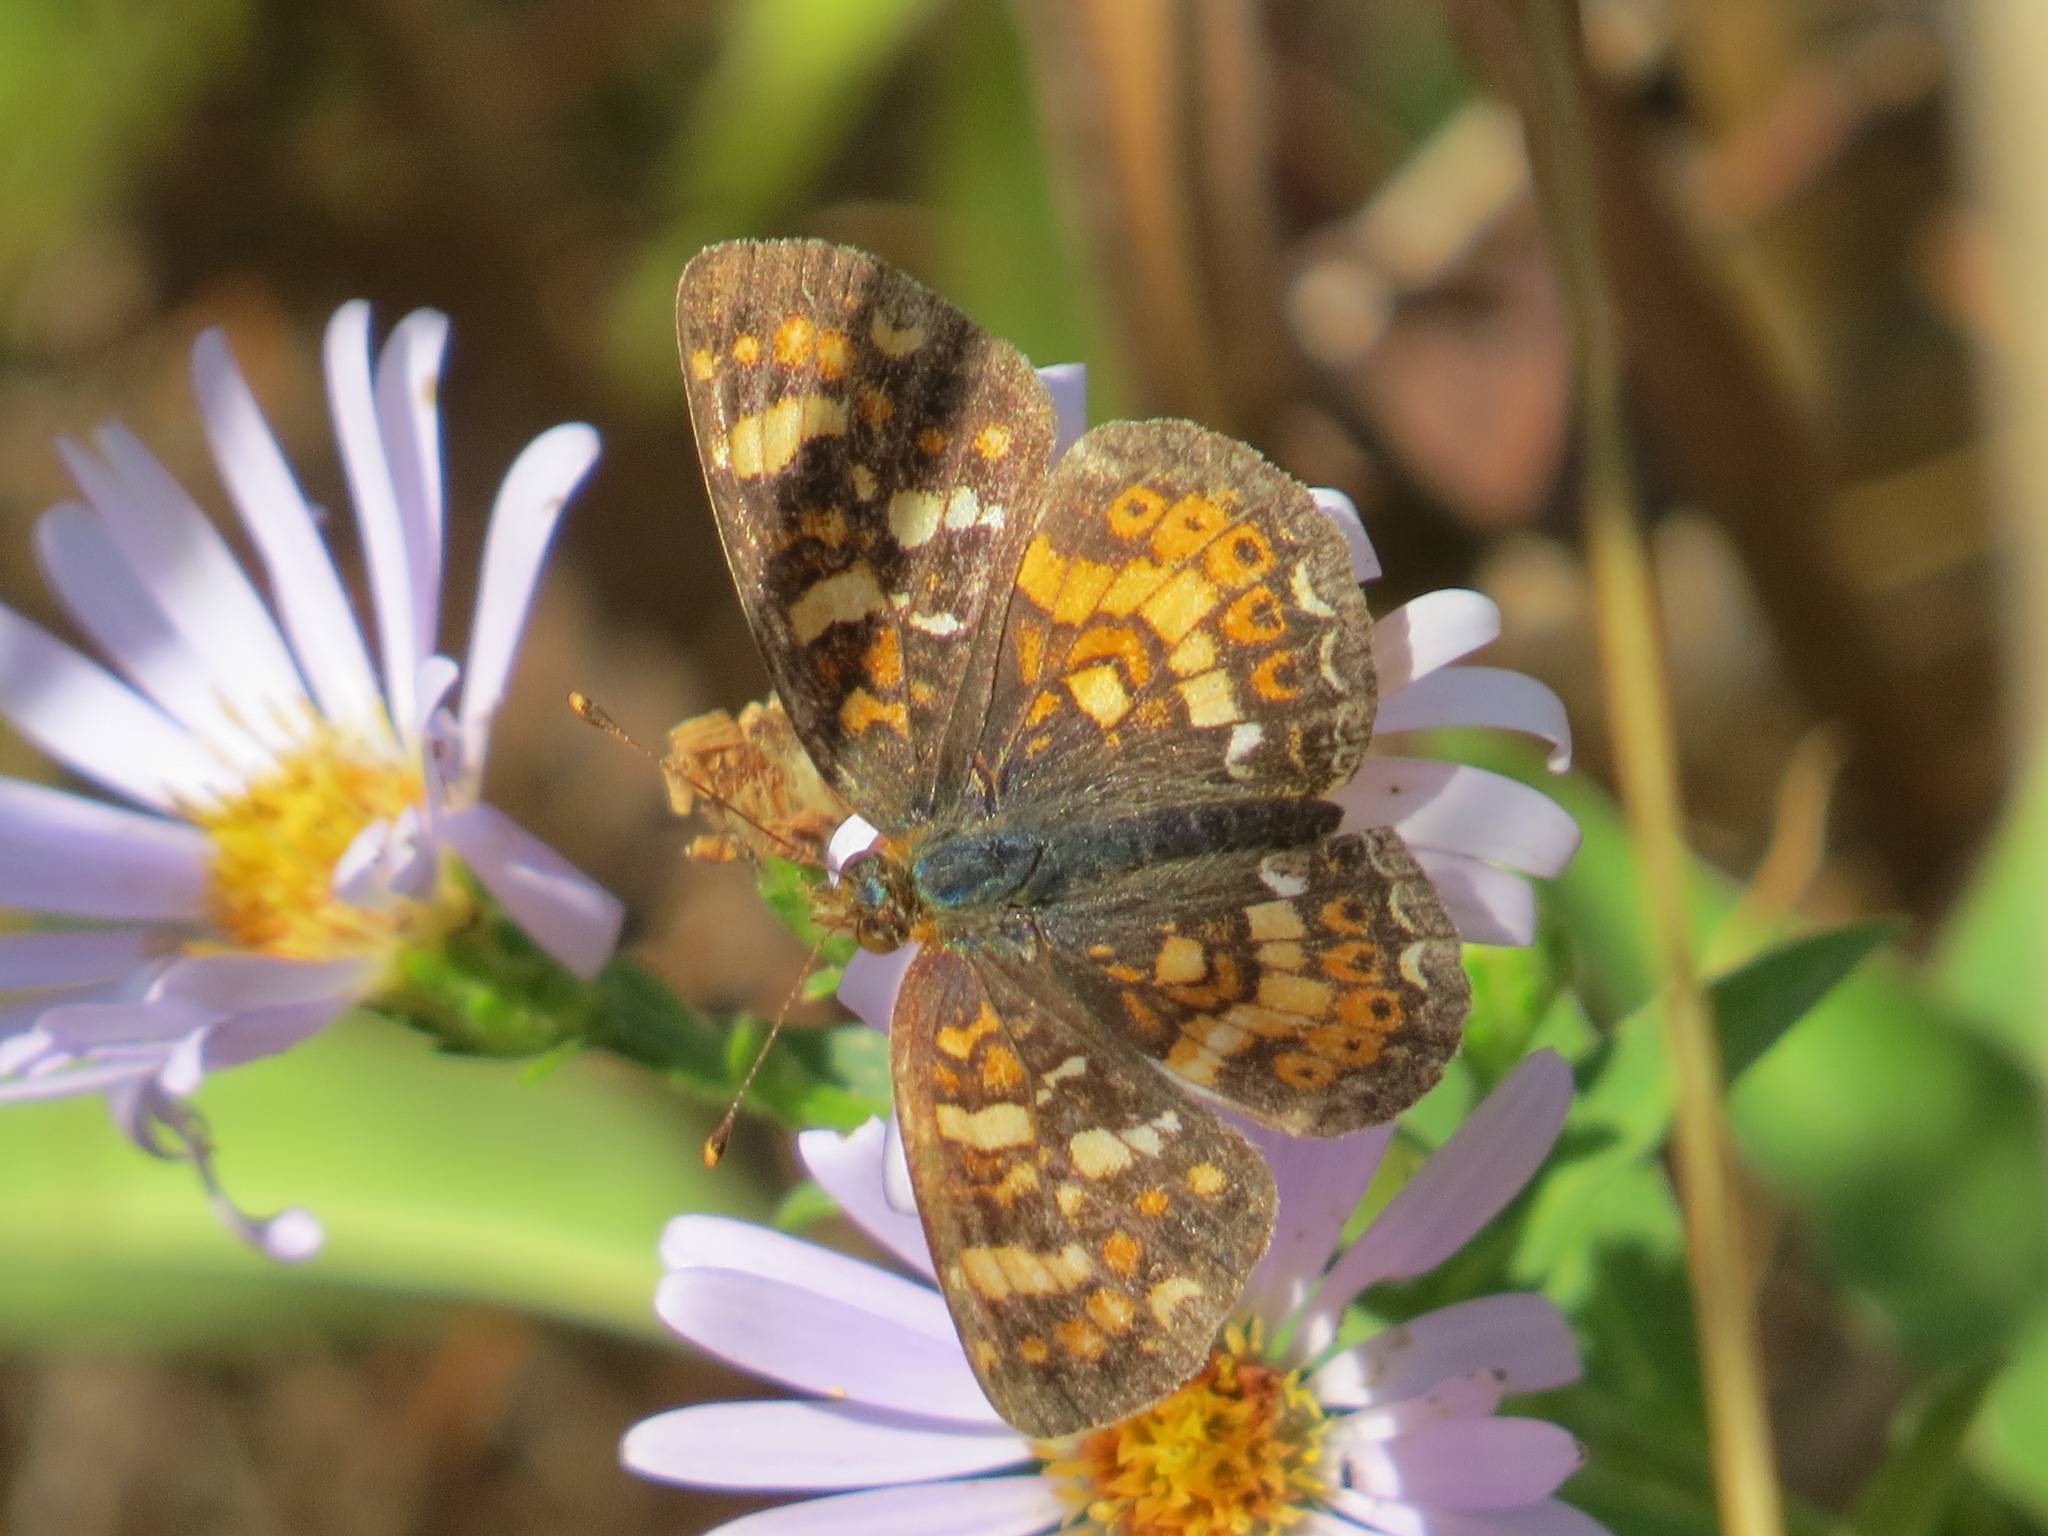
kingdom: Animalia
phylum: Arthropoda
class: Insecta
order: Lepidoptera
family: Nymphalidae
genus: Phyciodes
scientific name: Phyciodes tharos
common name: Pearl crescent
